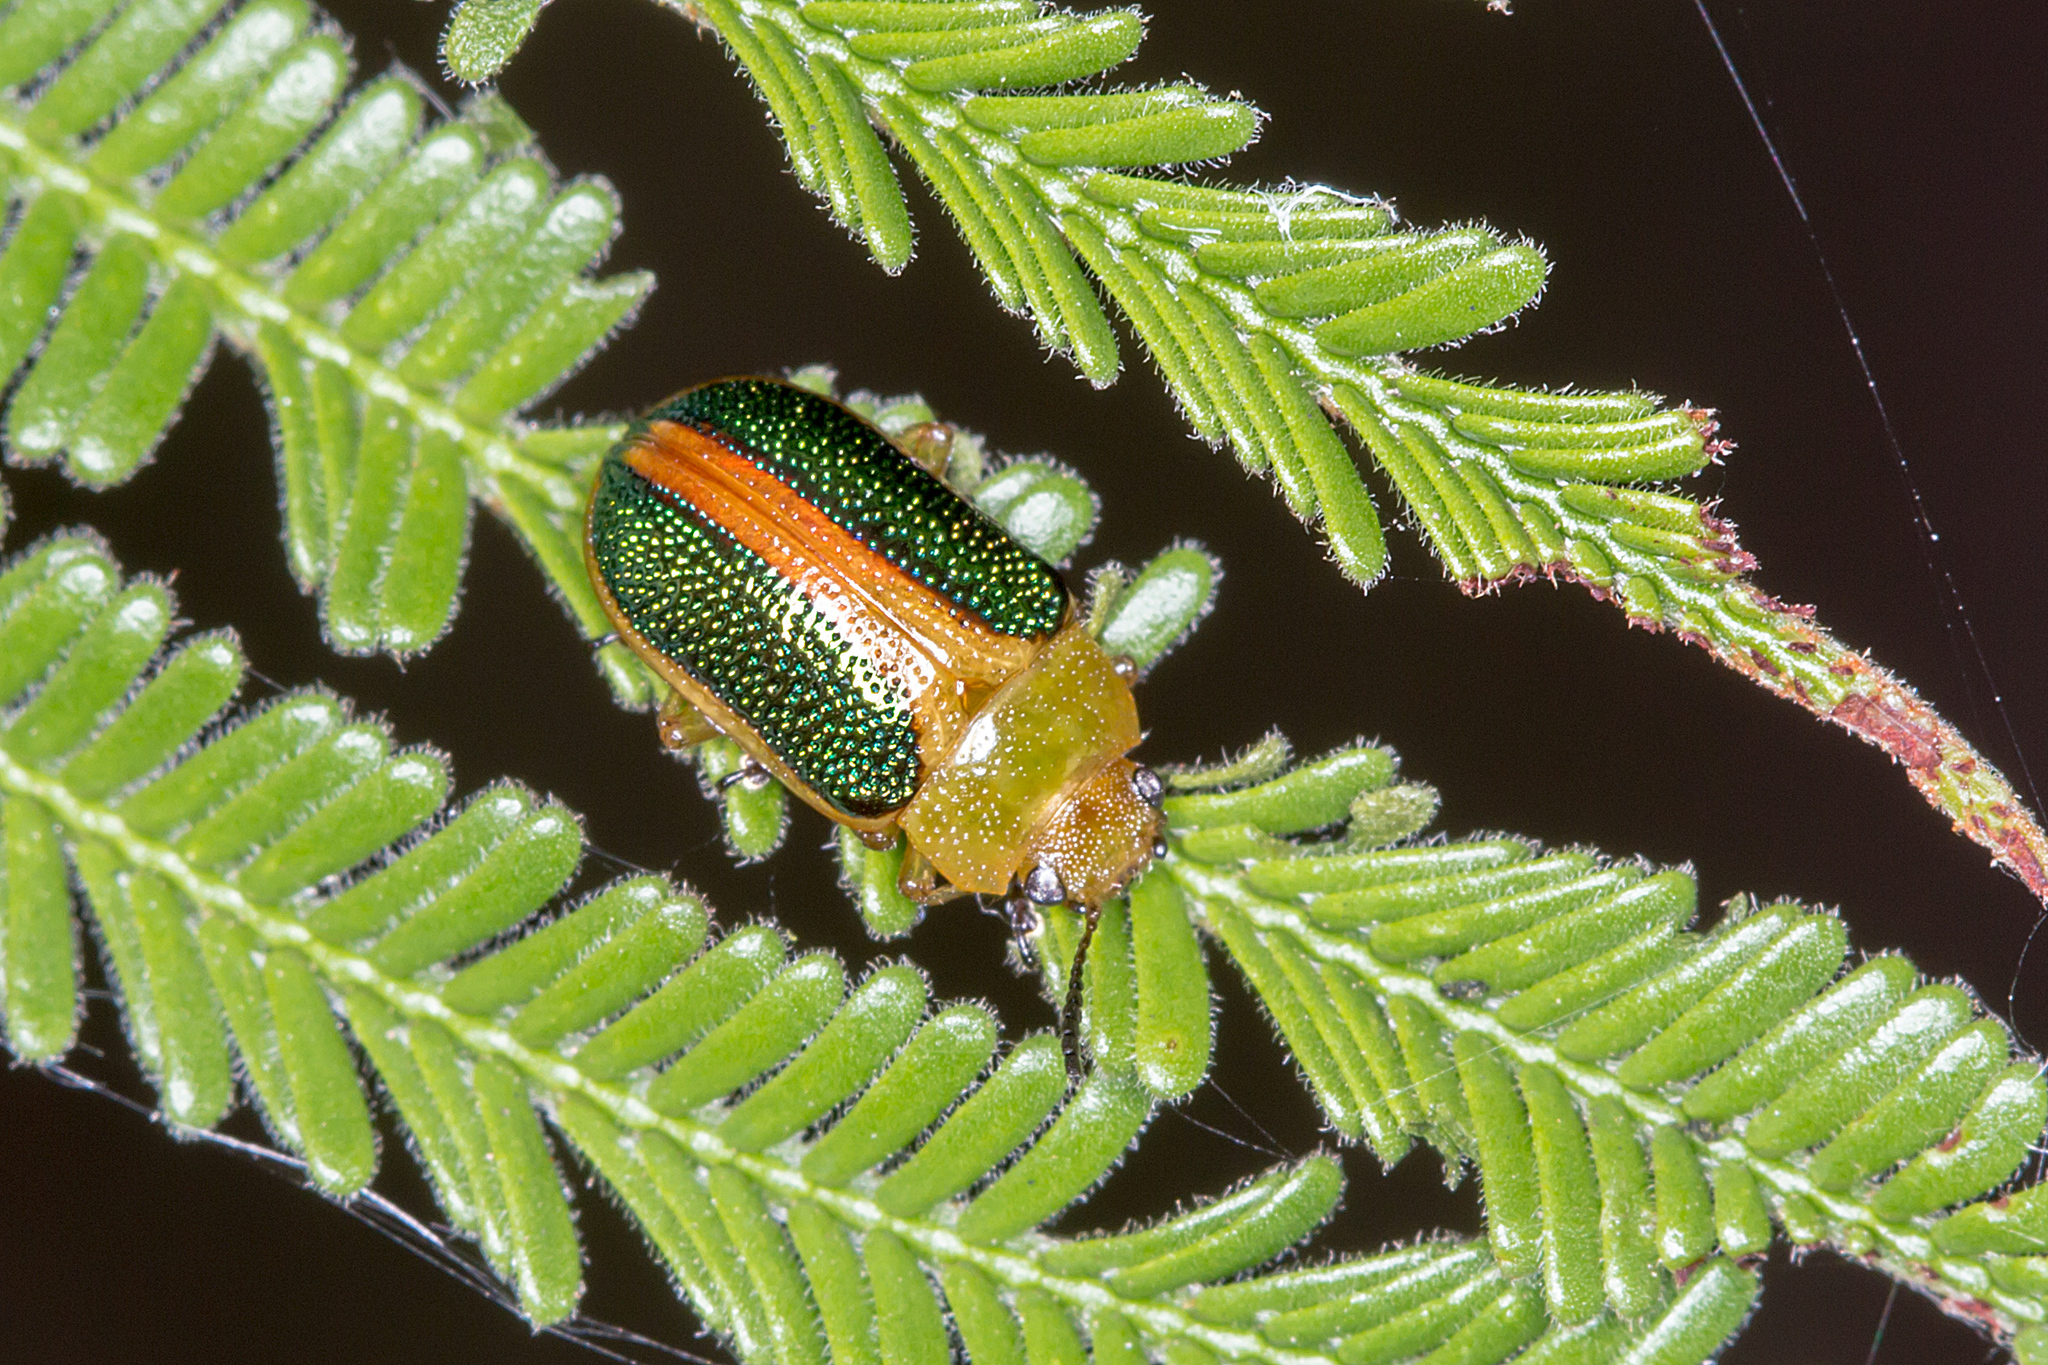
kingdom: Animalia
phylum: Arthropoda
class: Insecta
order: Coleoptera
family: Chrysomelidae
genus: Calomela
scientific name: Calomela
